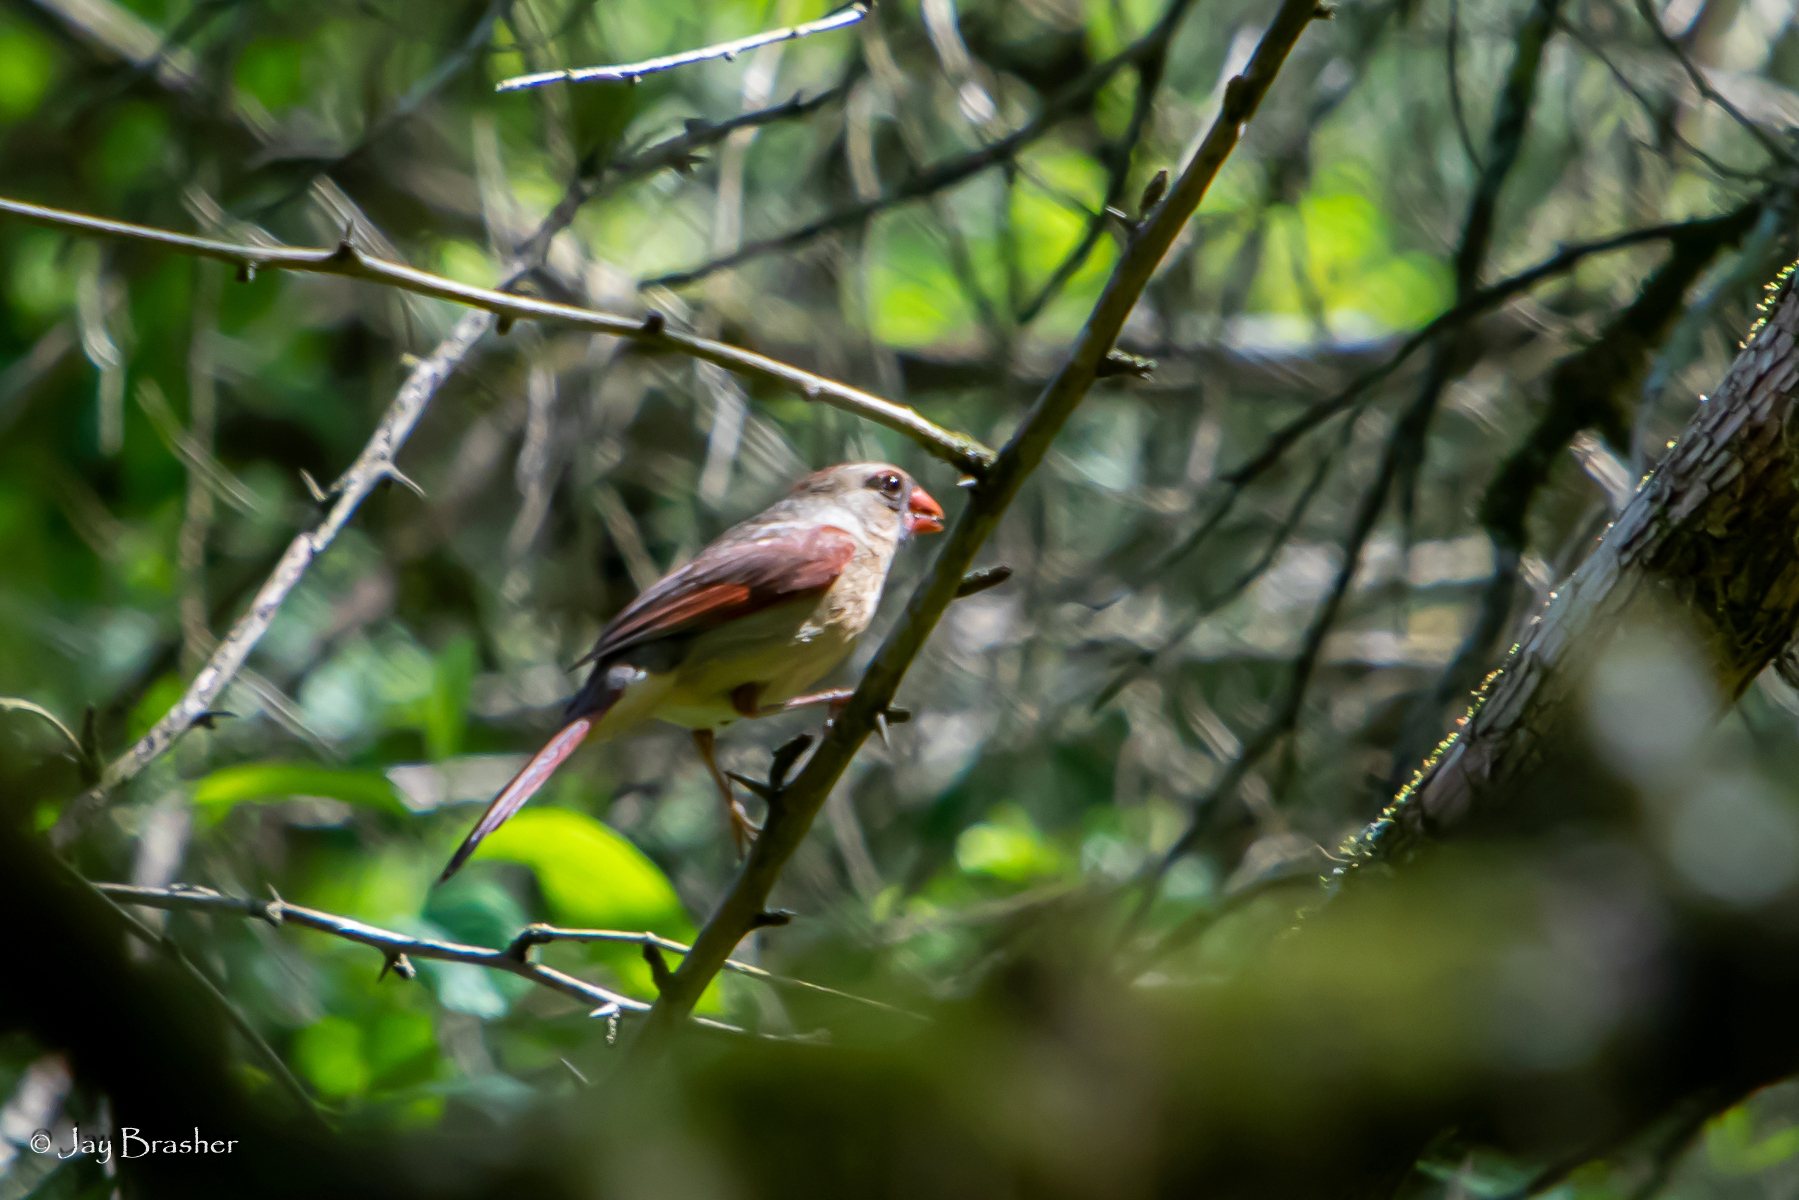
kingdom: Animalia
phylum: Chordata
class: Aves
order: Passeriformes
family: Cardinalidae
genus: Cardinalis
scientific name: Cardinalis cardinalis
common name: Northern cardinal
